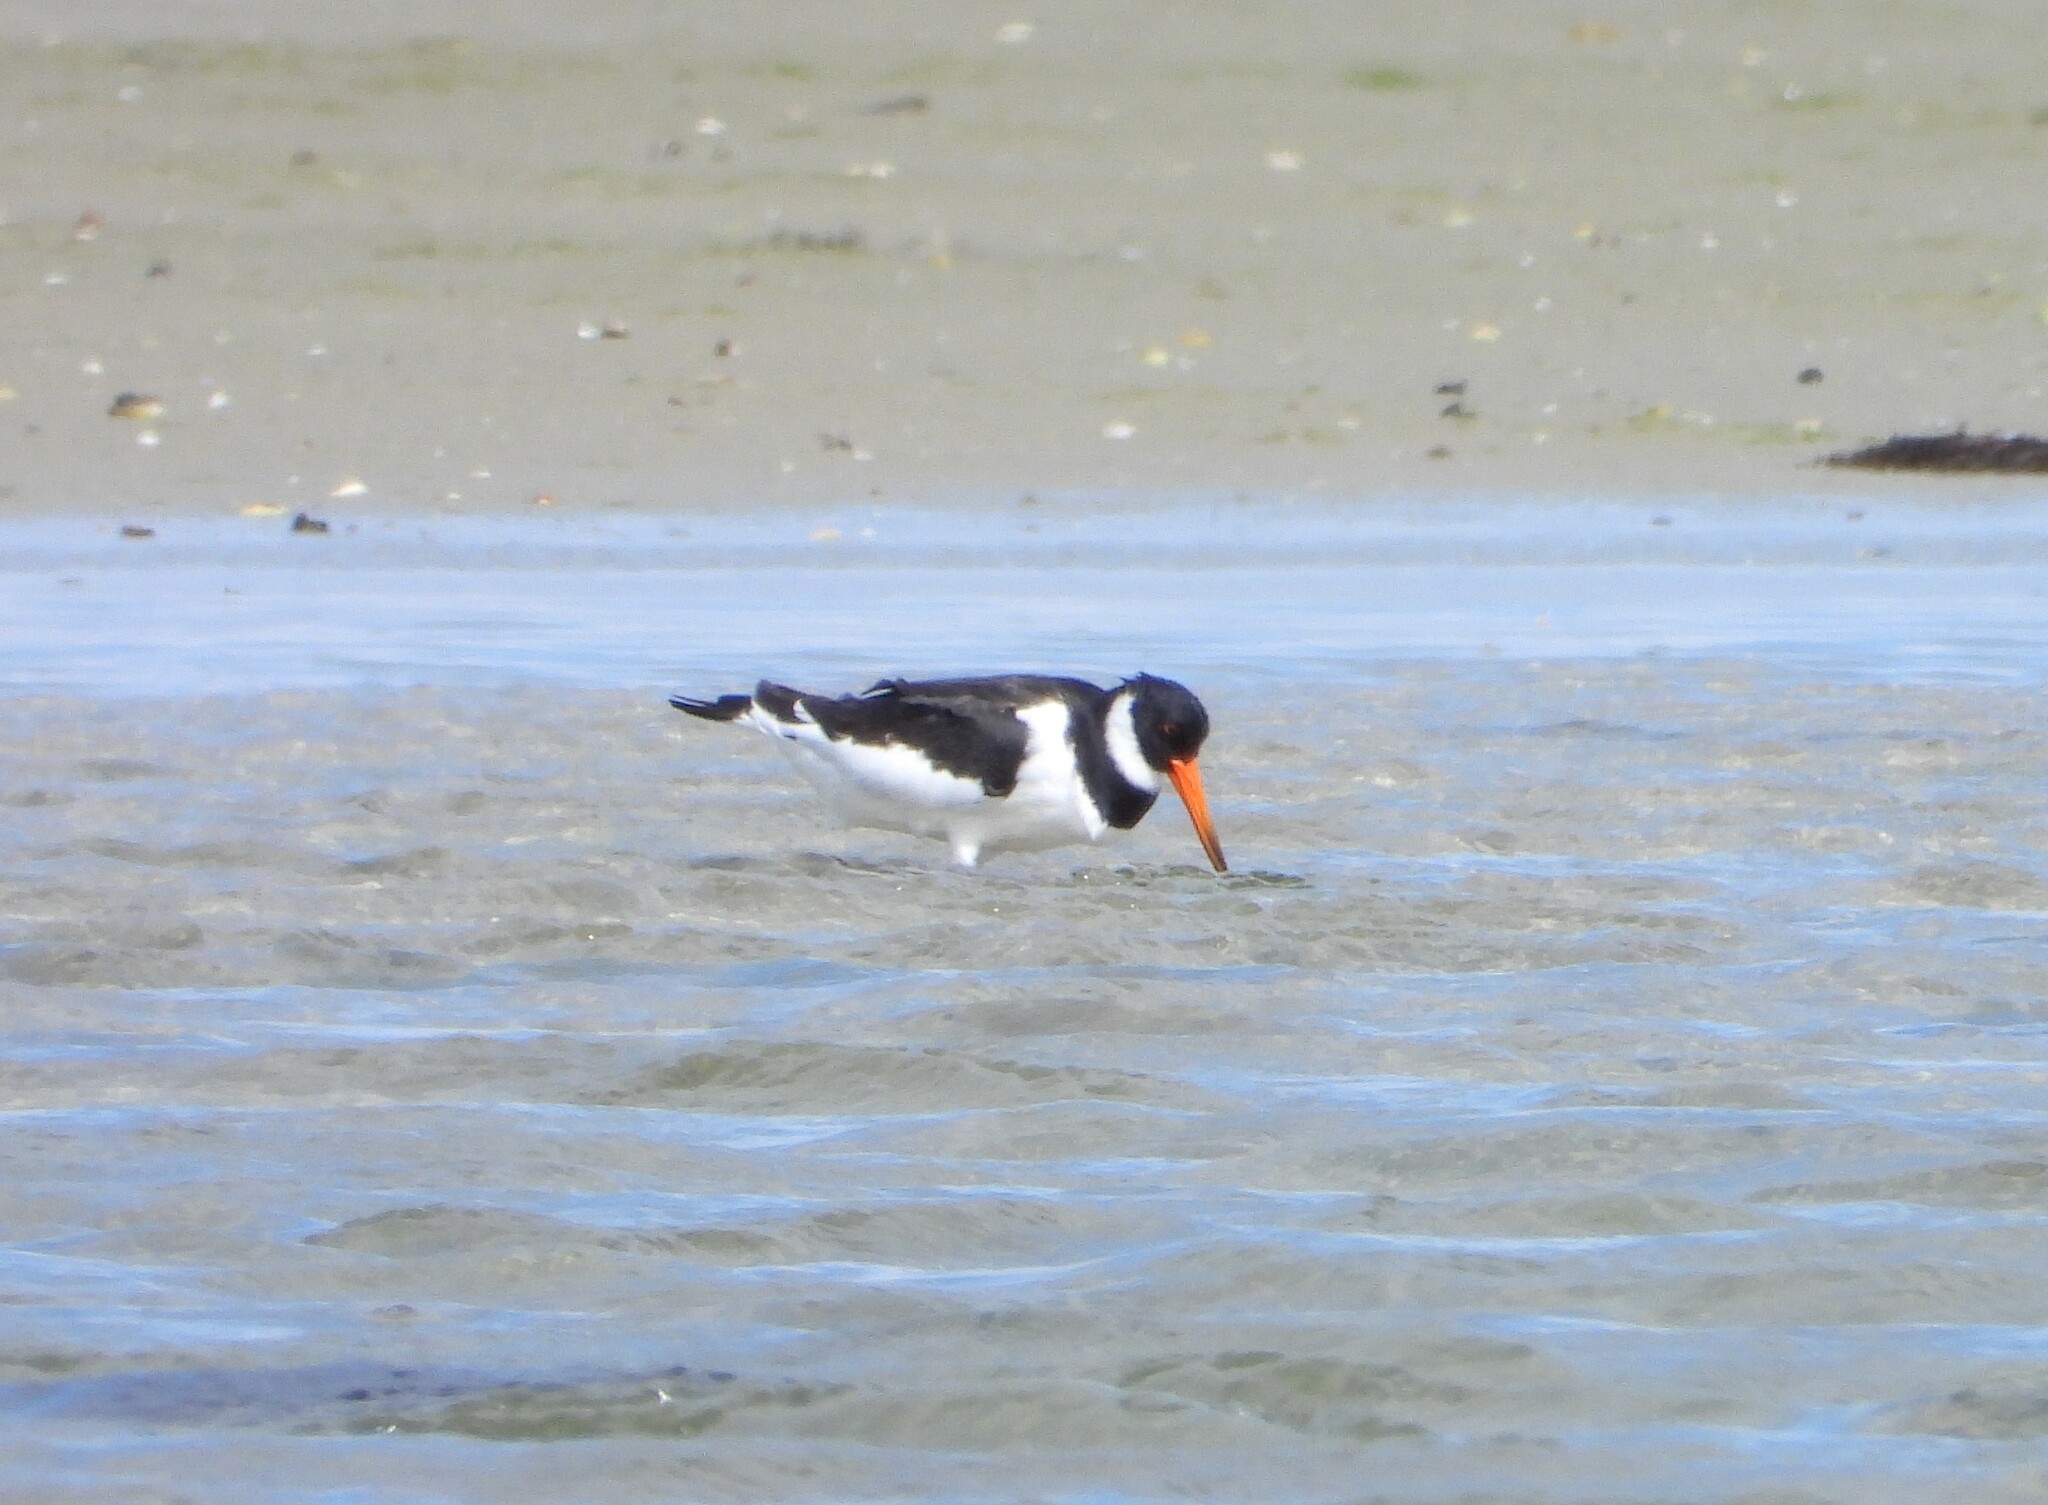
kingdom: Animalia
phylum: Chordata
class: Aves
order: Charadriiformes
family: Haematopodidae
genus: Haematopus
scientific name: Haematopus ostralegus
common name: Eurasian oystercatcher
